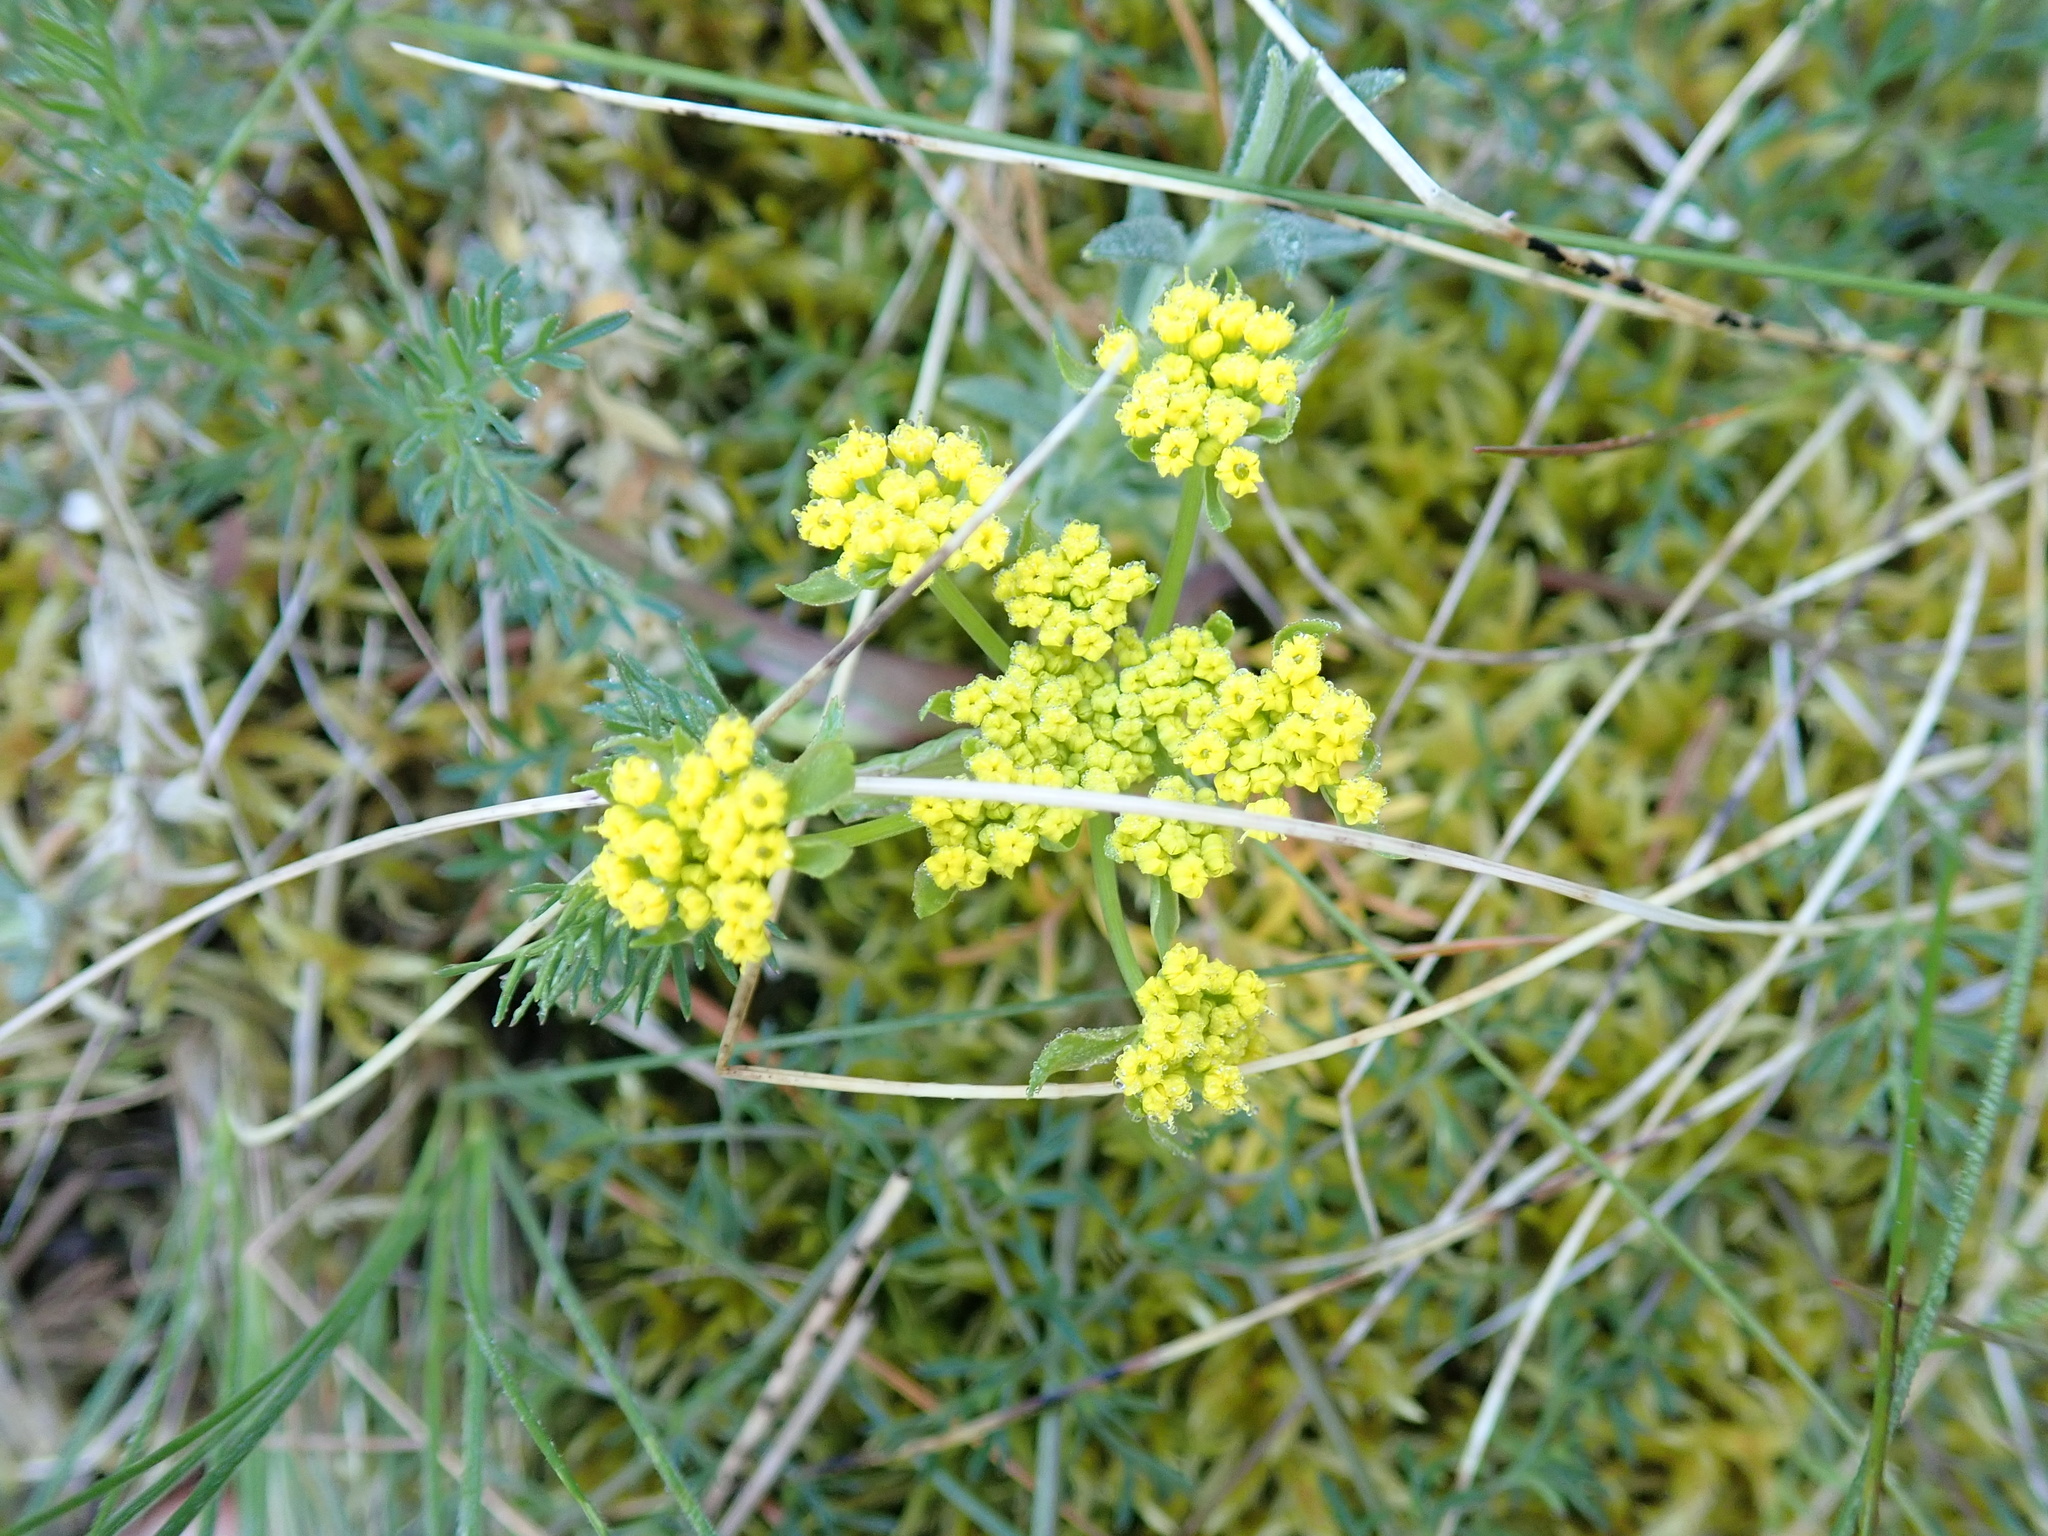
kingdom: Plantae
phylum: Tracheophyta
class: Magnoliopsida
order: Apiales
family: Apiaceae
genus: Lomatium
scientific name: Lomatium utriculatum
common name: Fine-leaf desert-parsley
